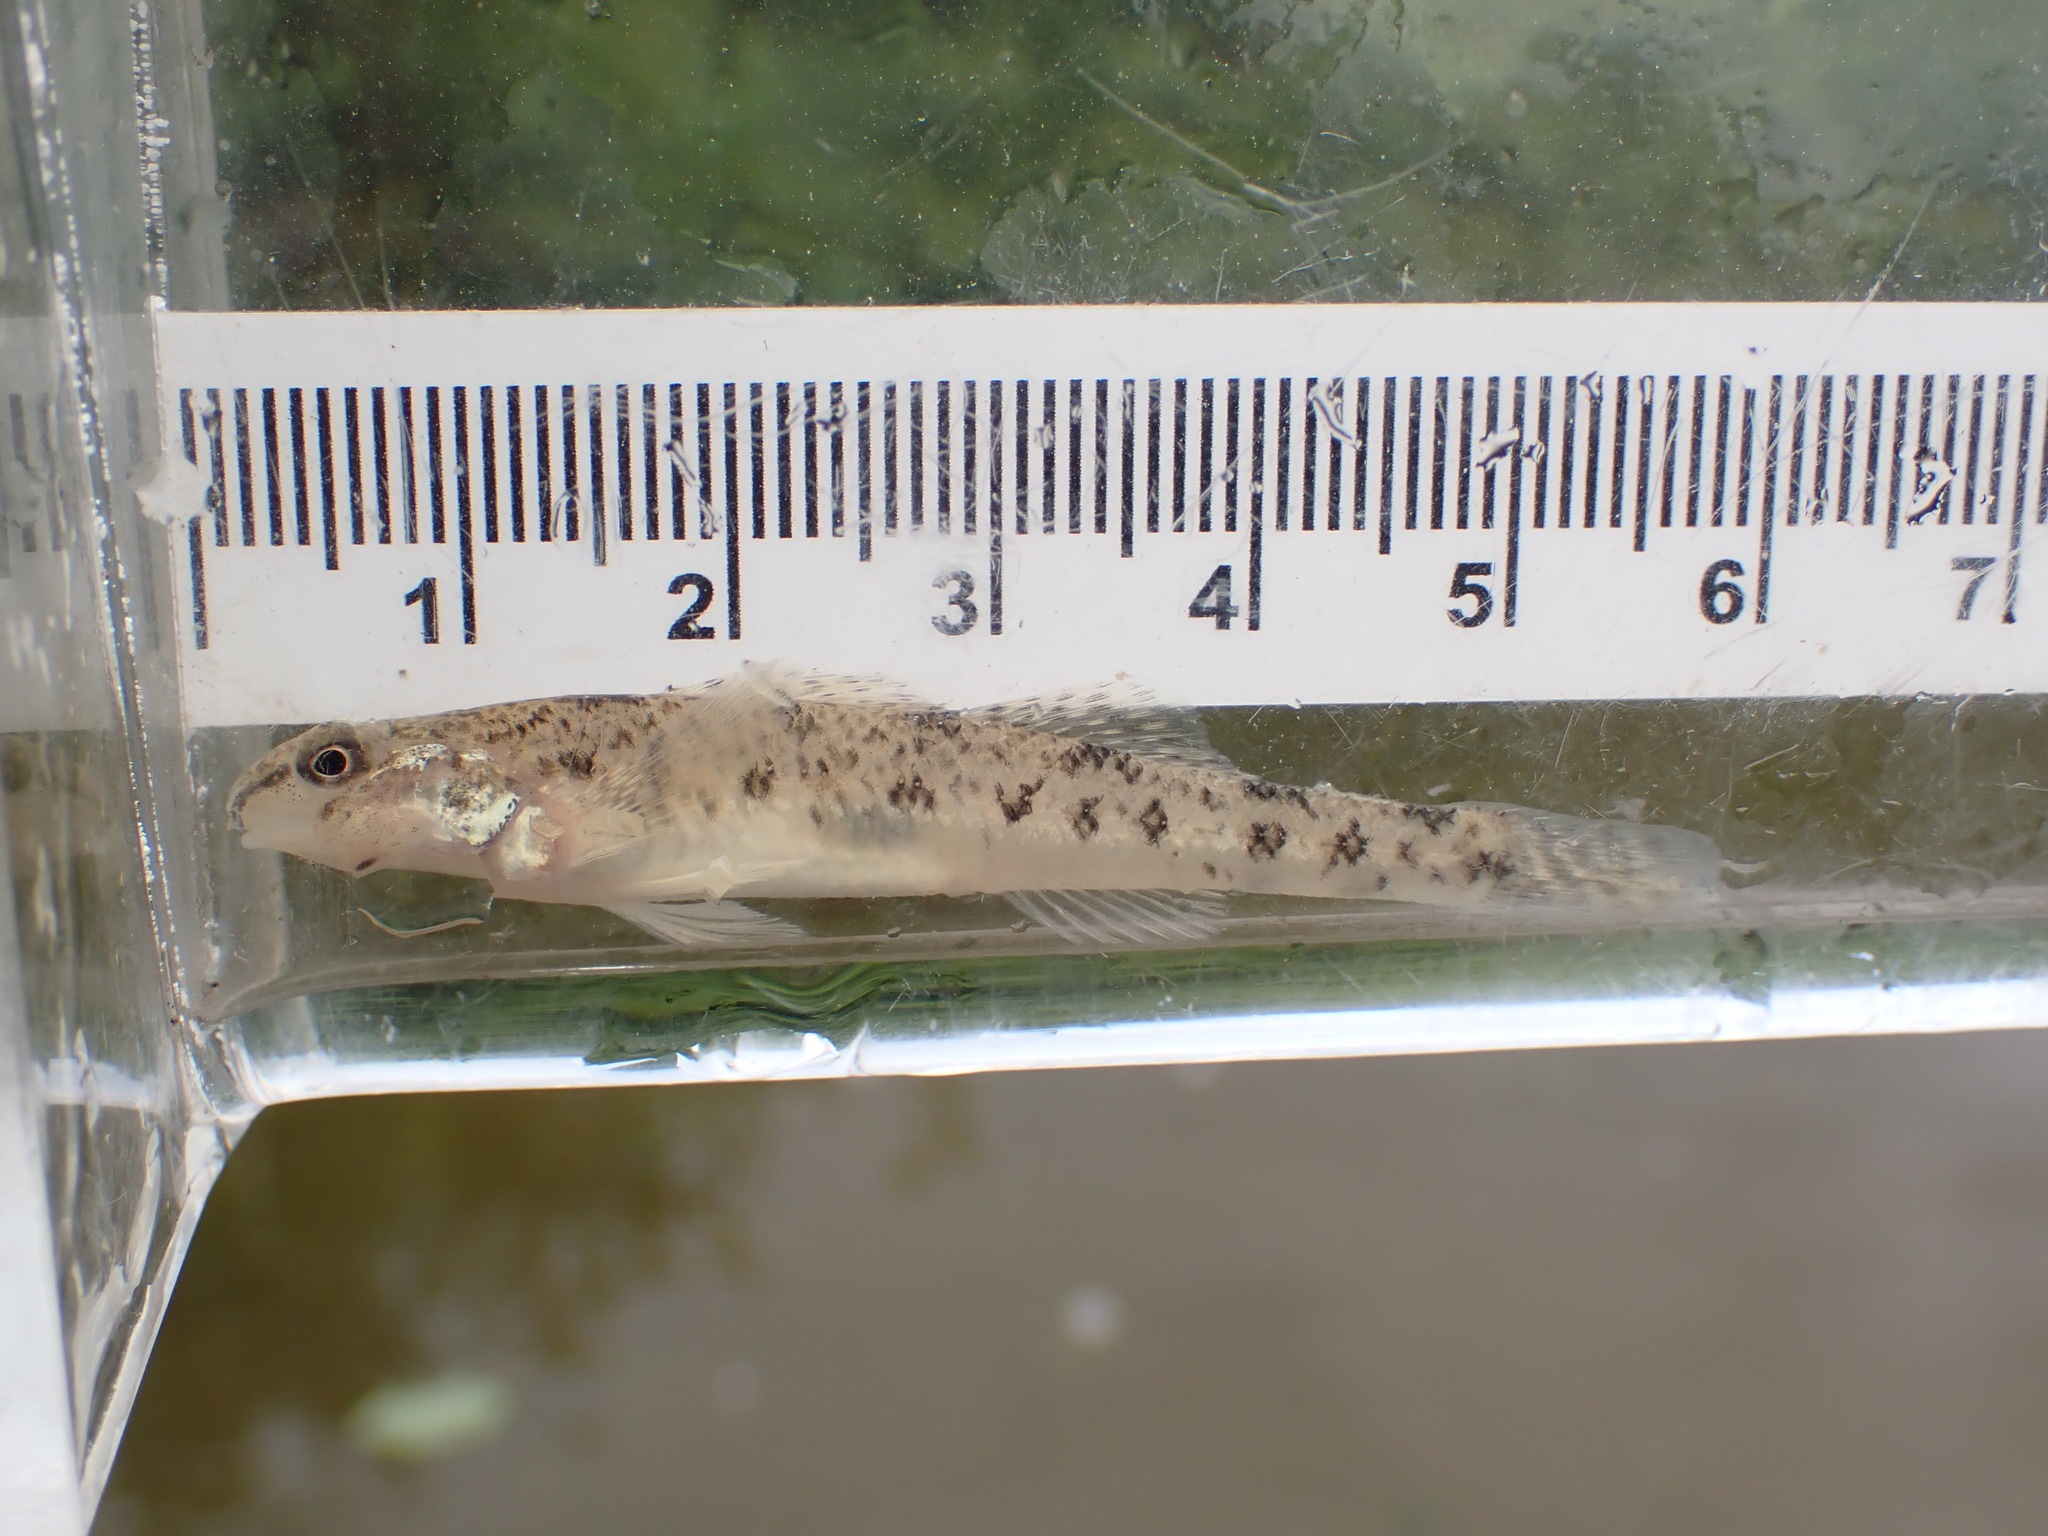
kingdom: Animalia
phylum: Chordata
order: Perciformes
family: Percidae
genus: Etheostoma
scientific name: Etheostoma nigrum
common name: Johnny darter
